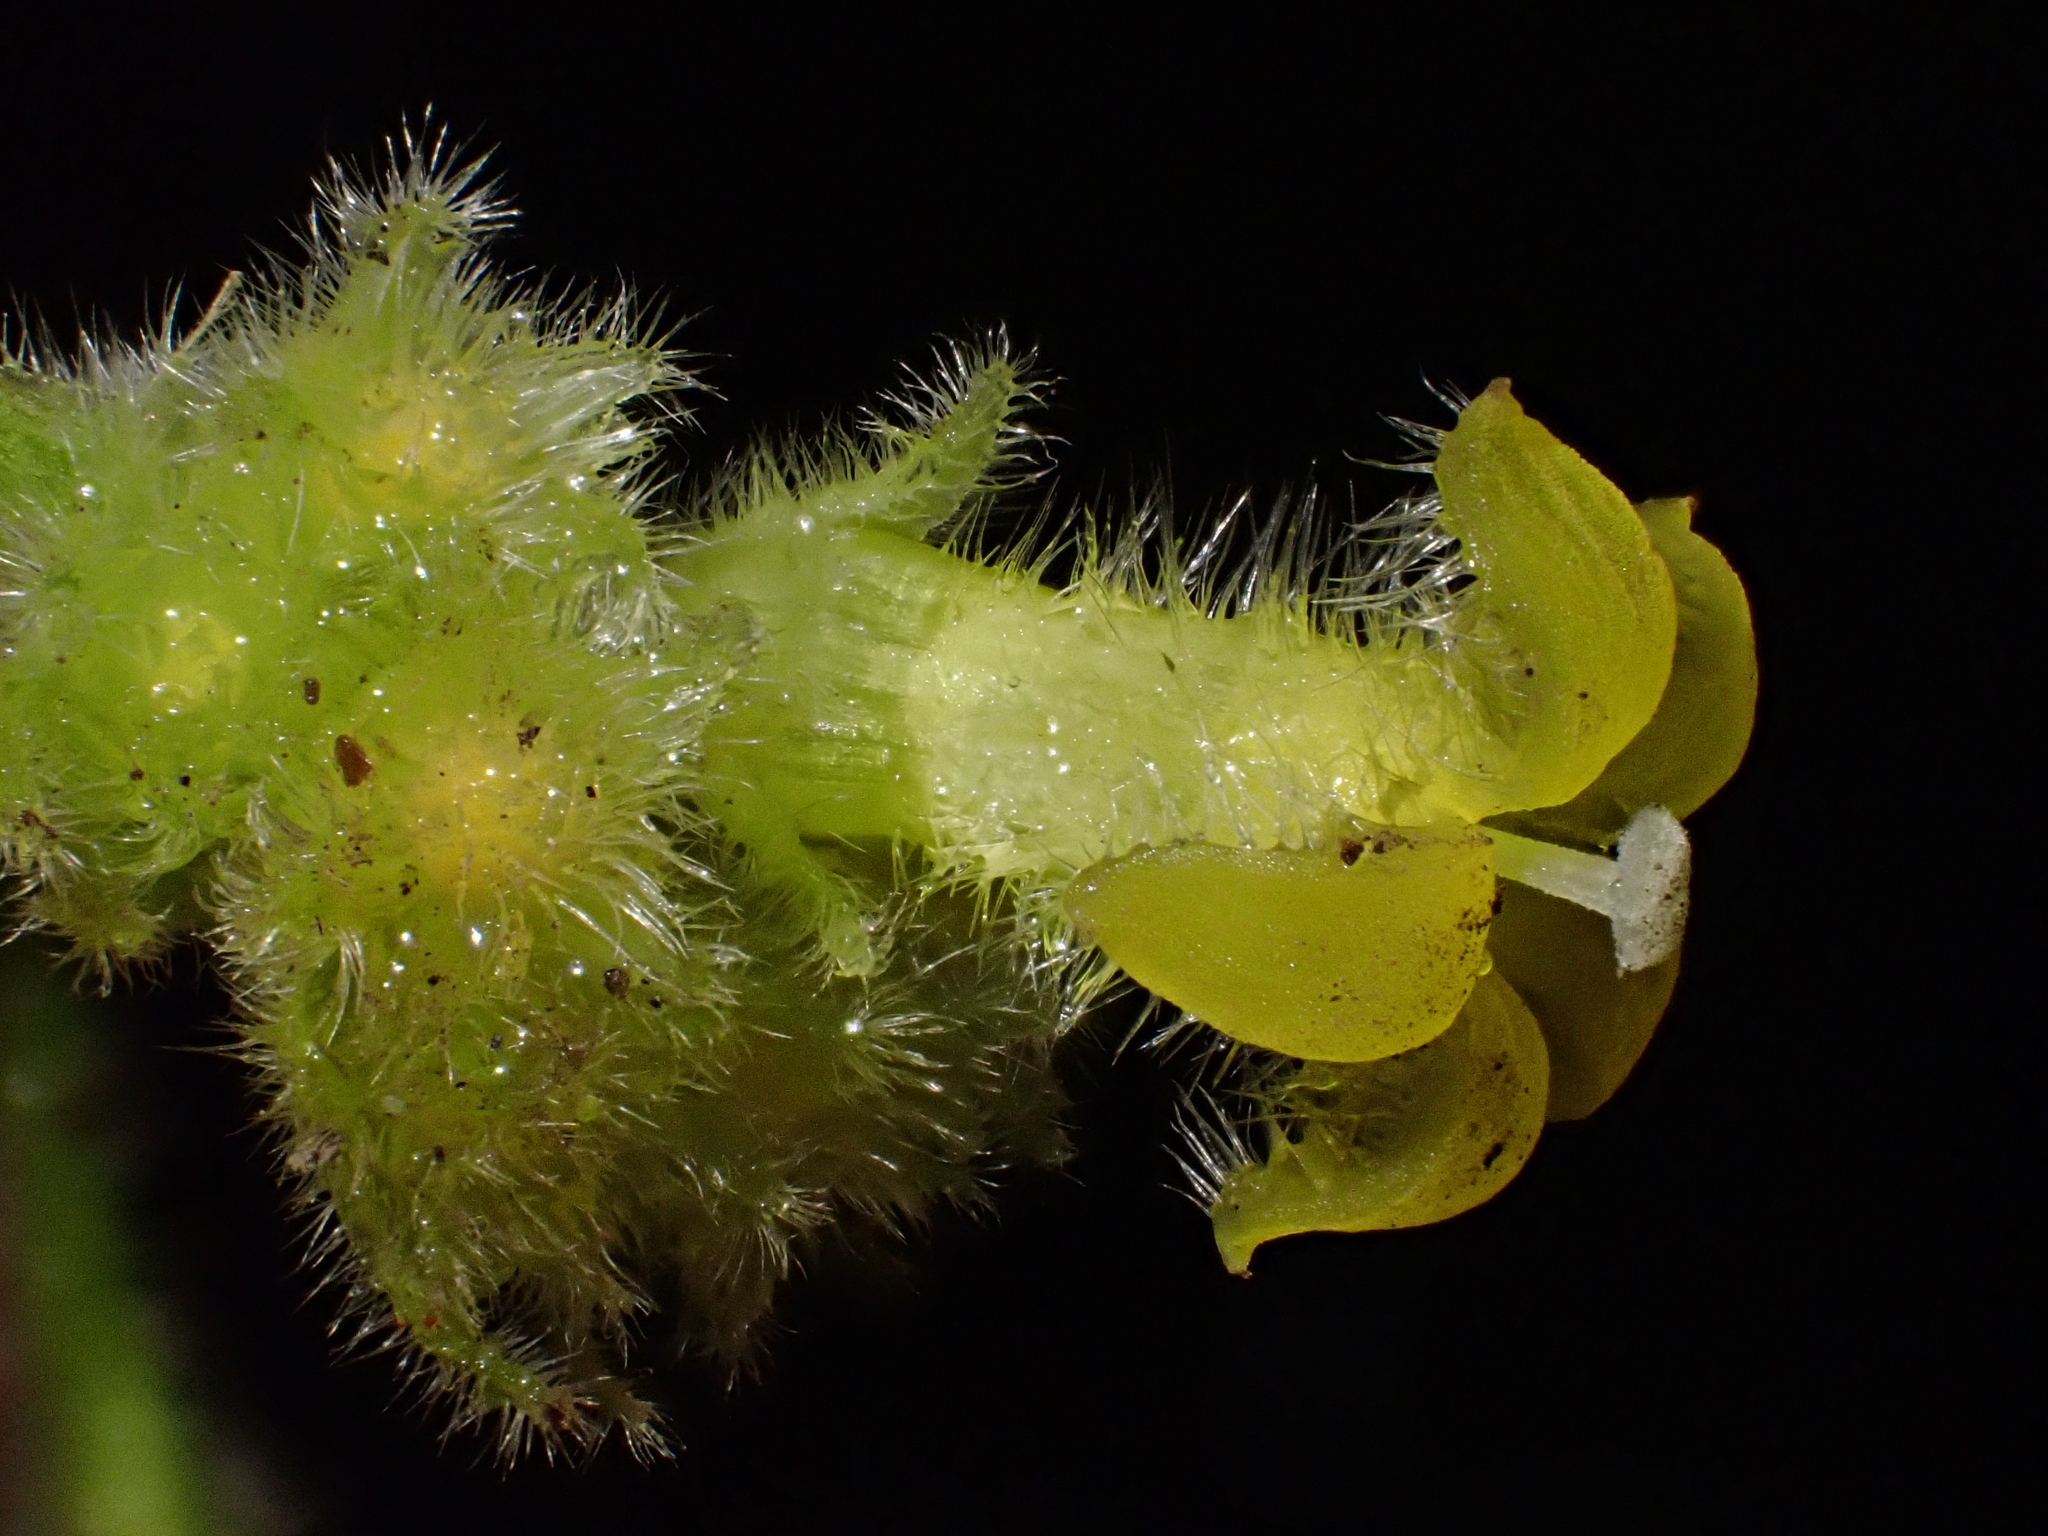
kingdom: Plantae
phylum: Tracheophyta
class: Magnoliopsida
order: Gentianales
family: Rubiaceae
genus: Palicourea
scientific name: Palicourea standleyana
